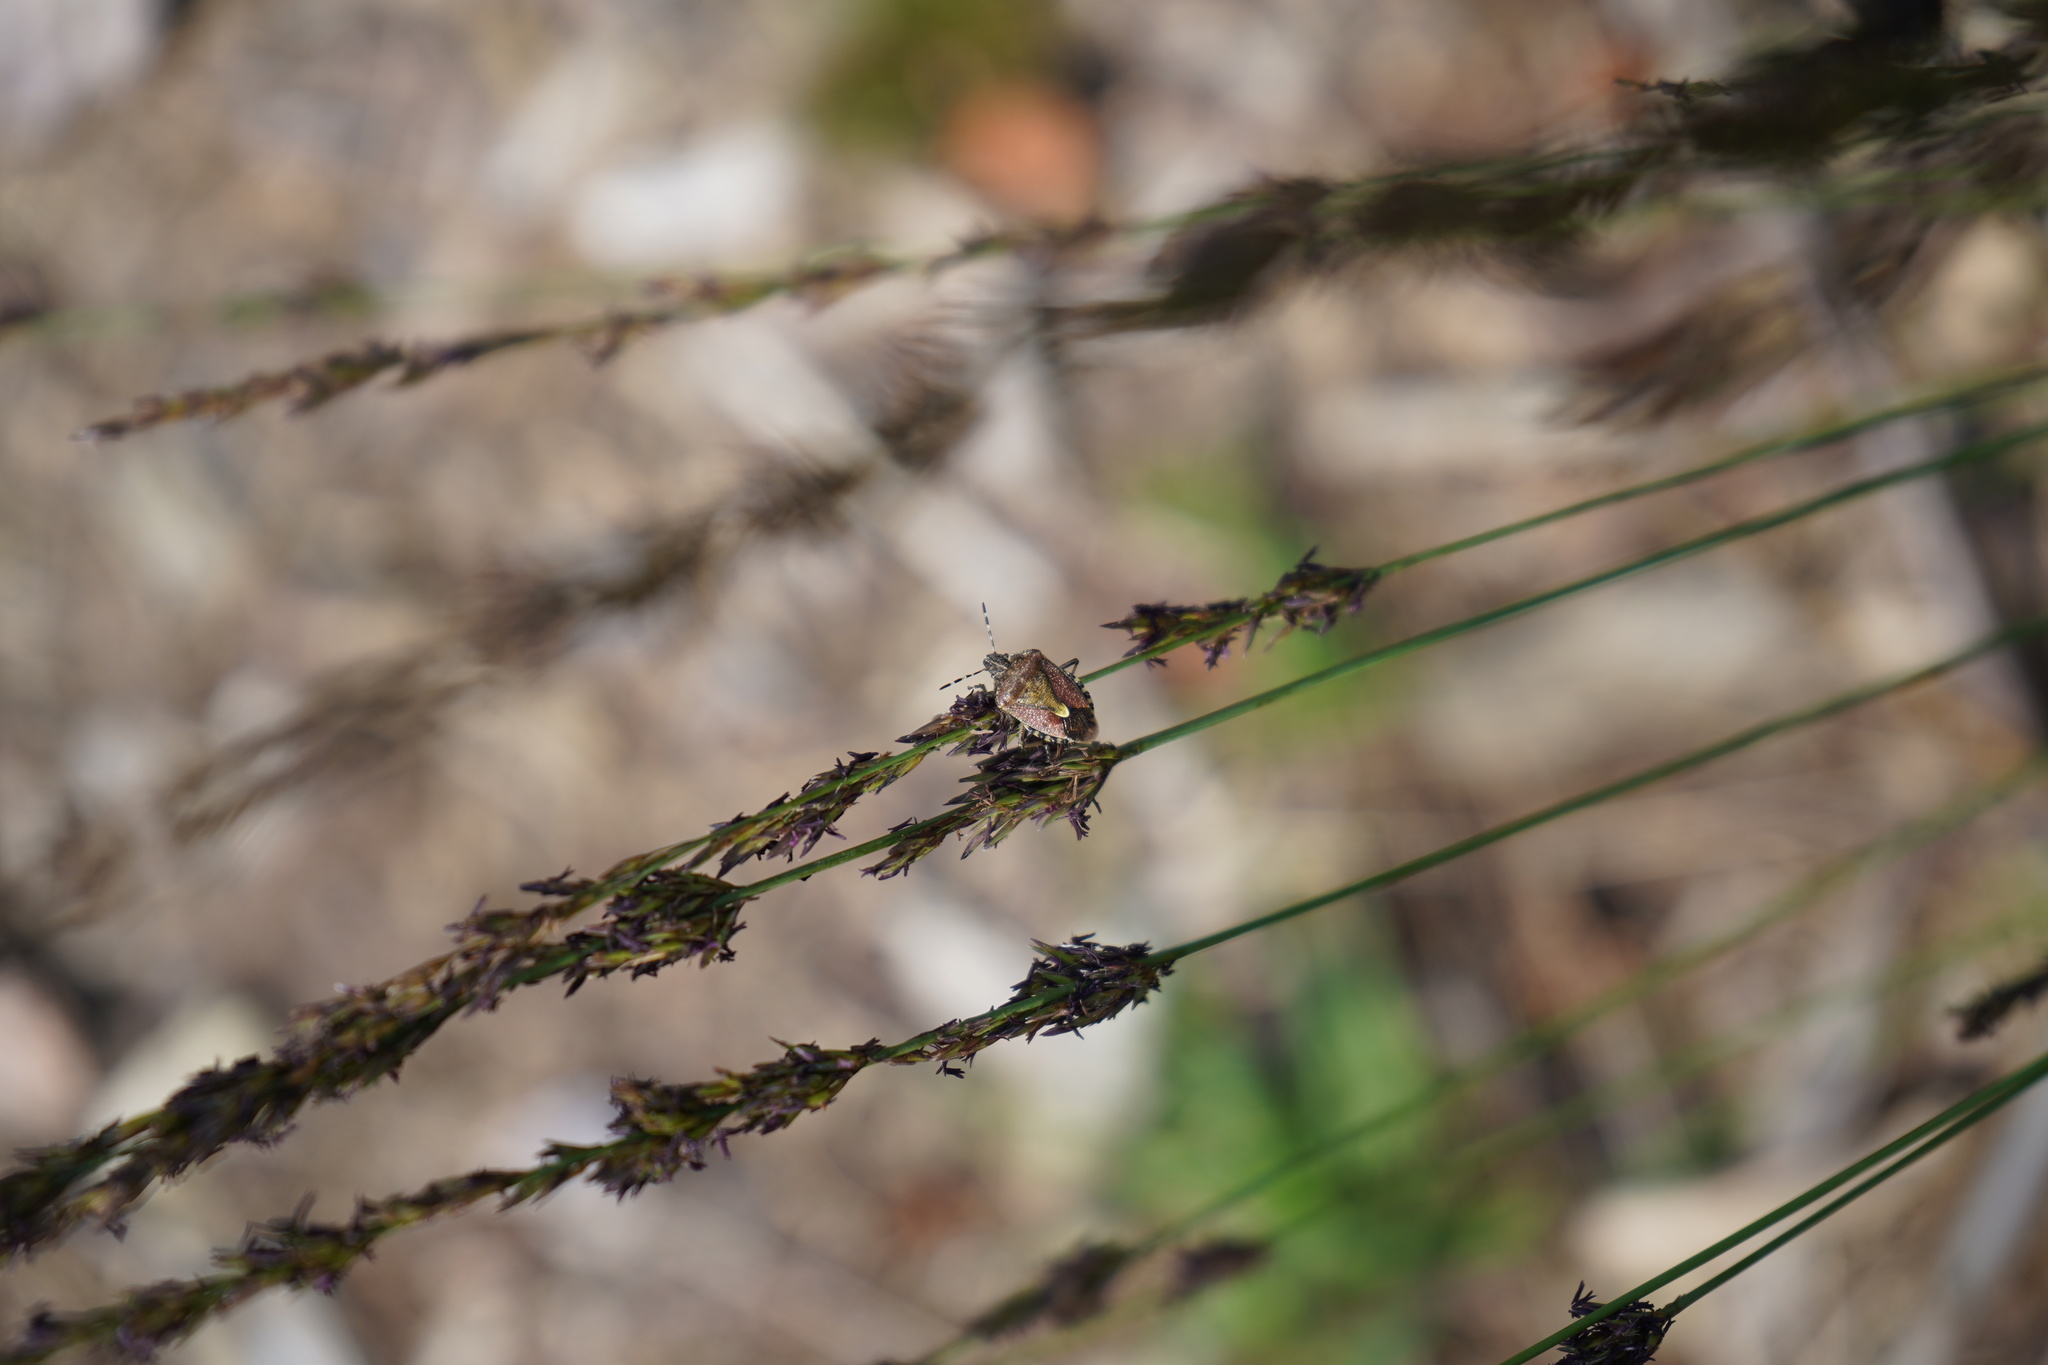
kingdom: Animalia
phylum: Arthropoda
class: Insecta
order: Hemiptera
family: Pentatomidae
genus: Dolycoris
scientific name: Dolycoris baccarum
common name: Sloe bug
